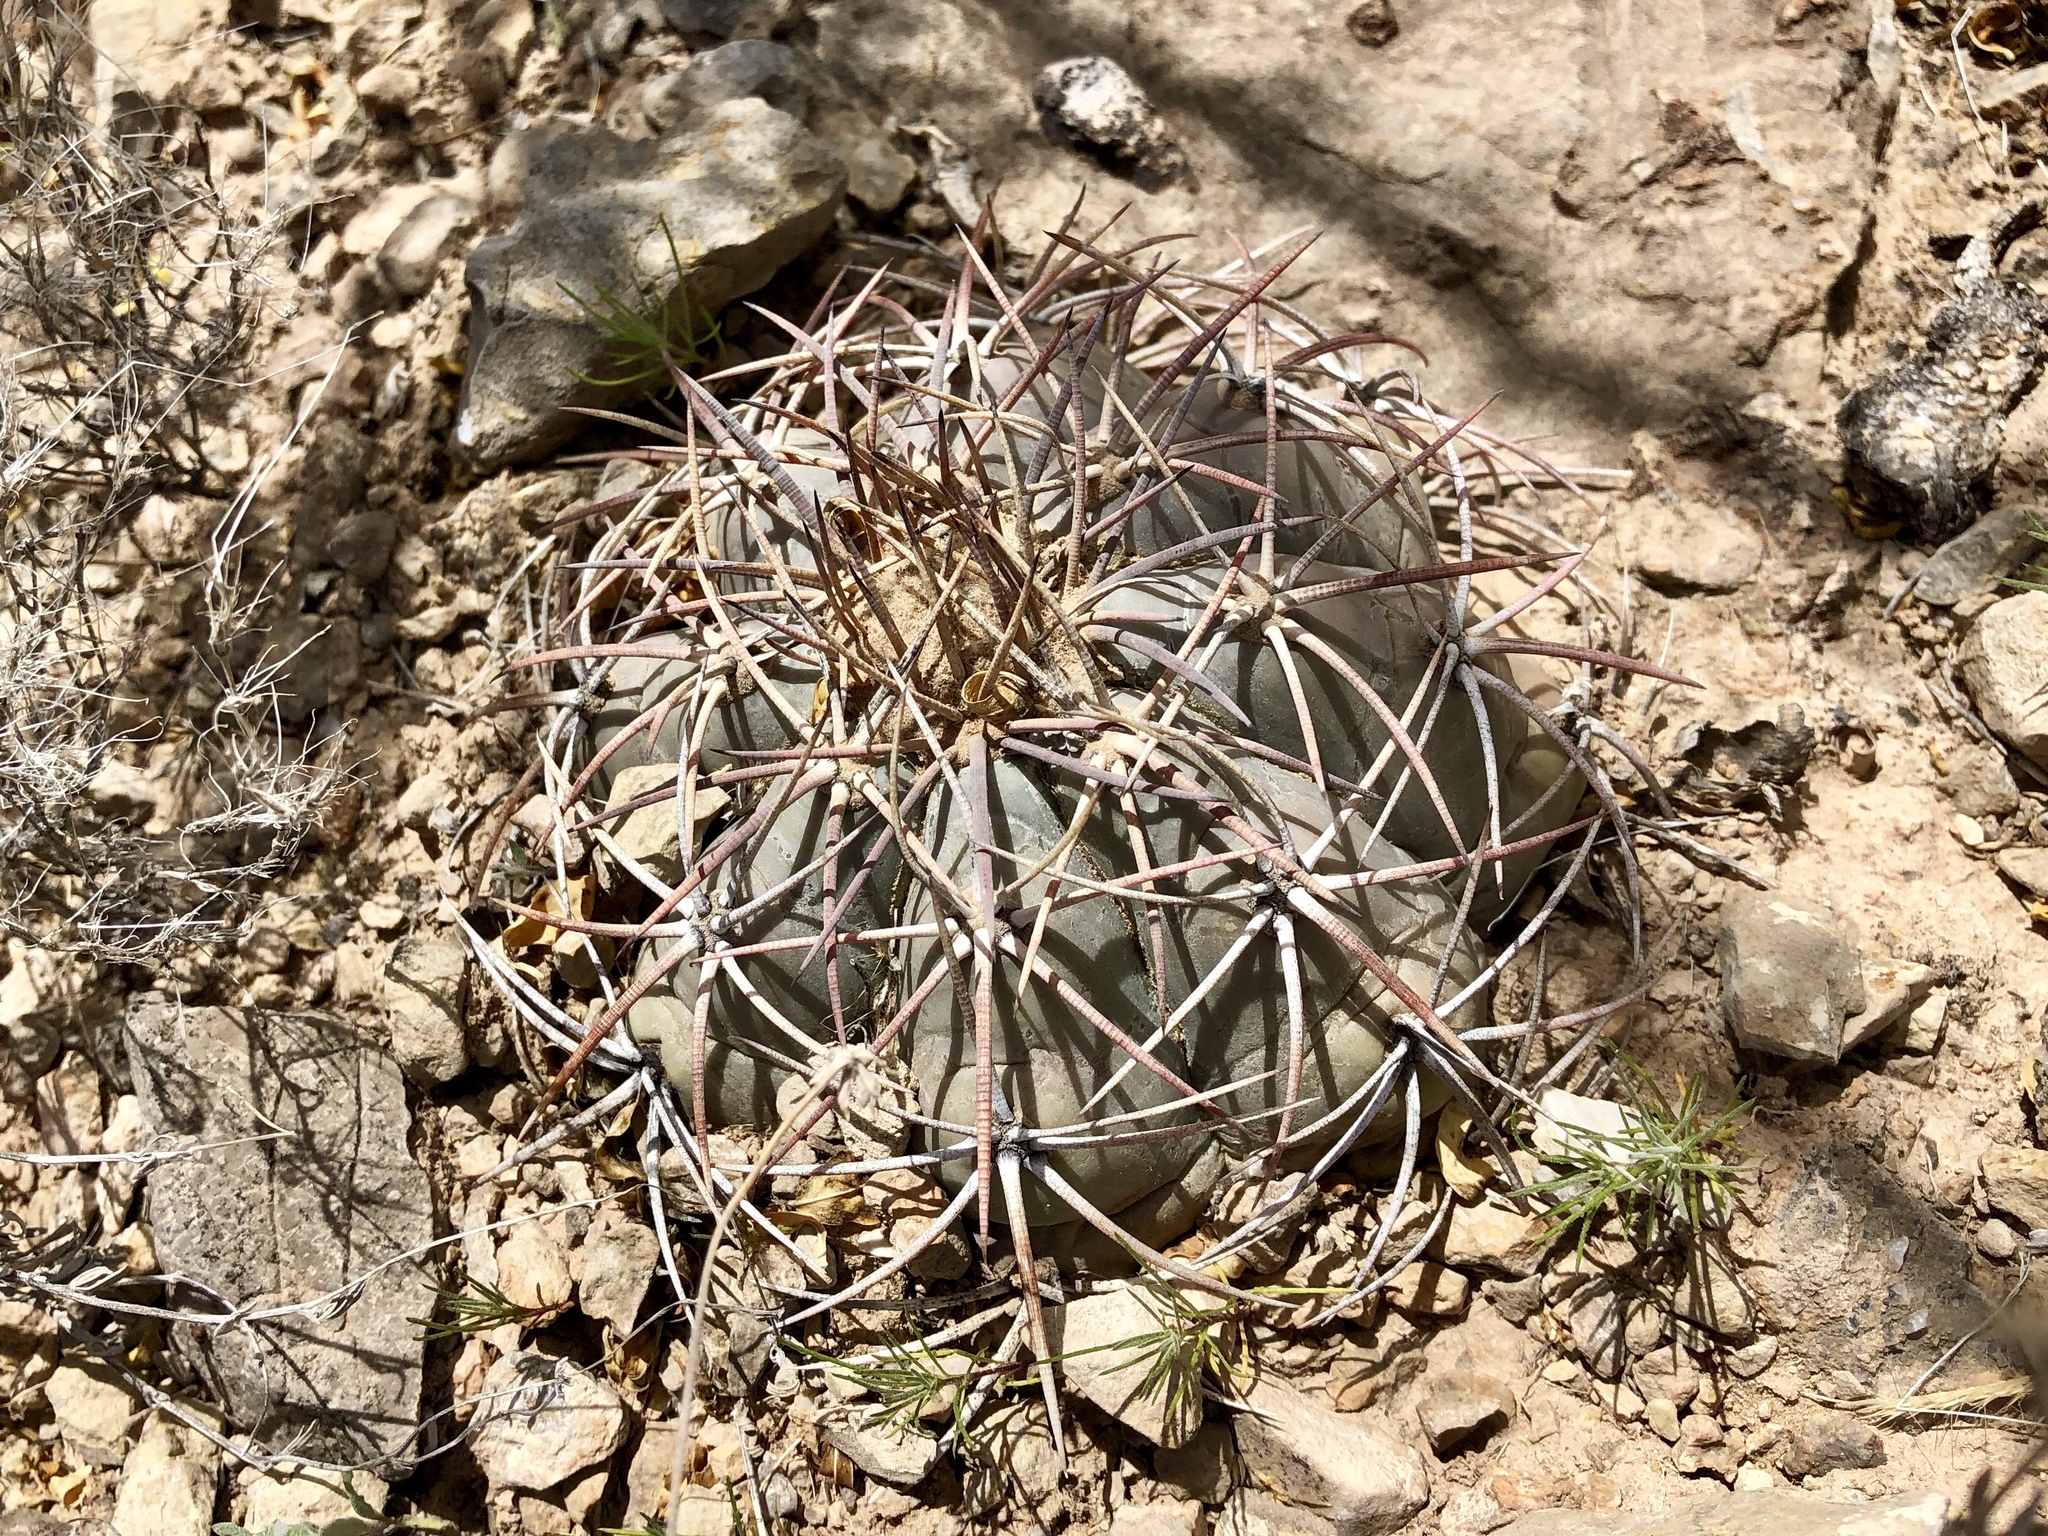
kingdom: Plantae
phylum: Tracheophyta
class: Magnoliopsida
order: Caryophyllales
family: Cactaceae
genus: Echinocactus
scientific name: Echinocactus horizonthalonius
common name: Devilshead
